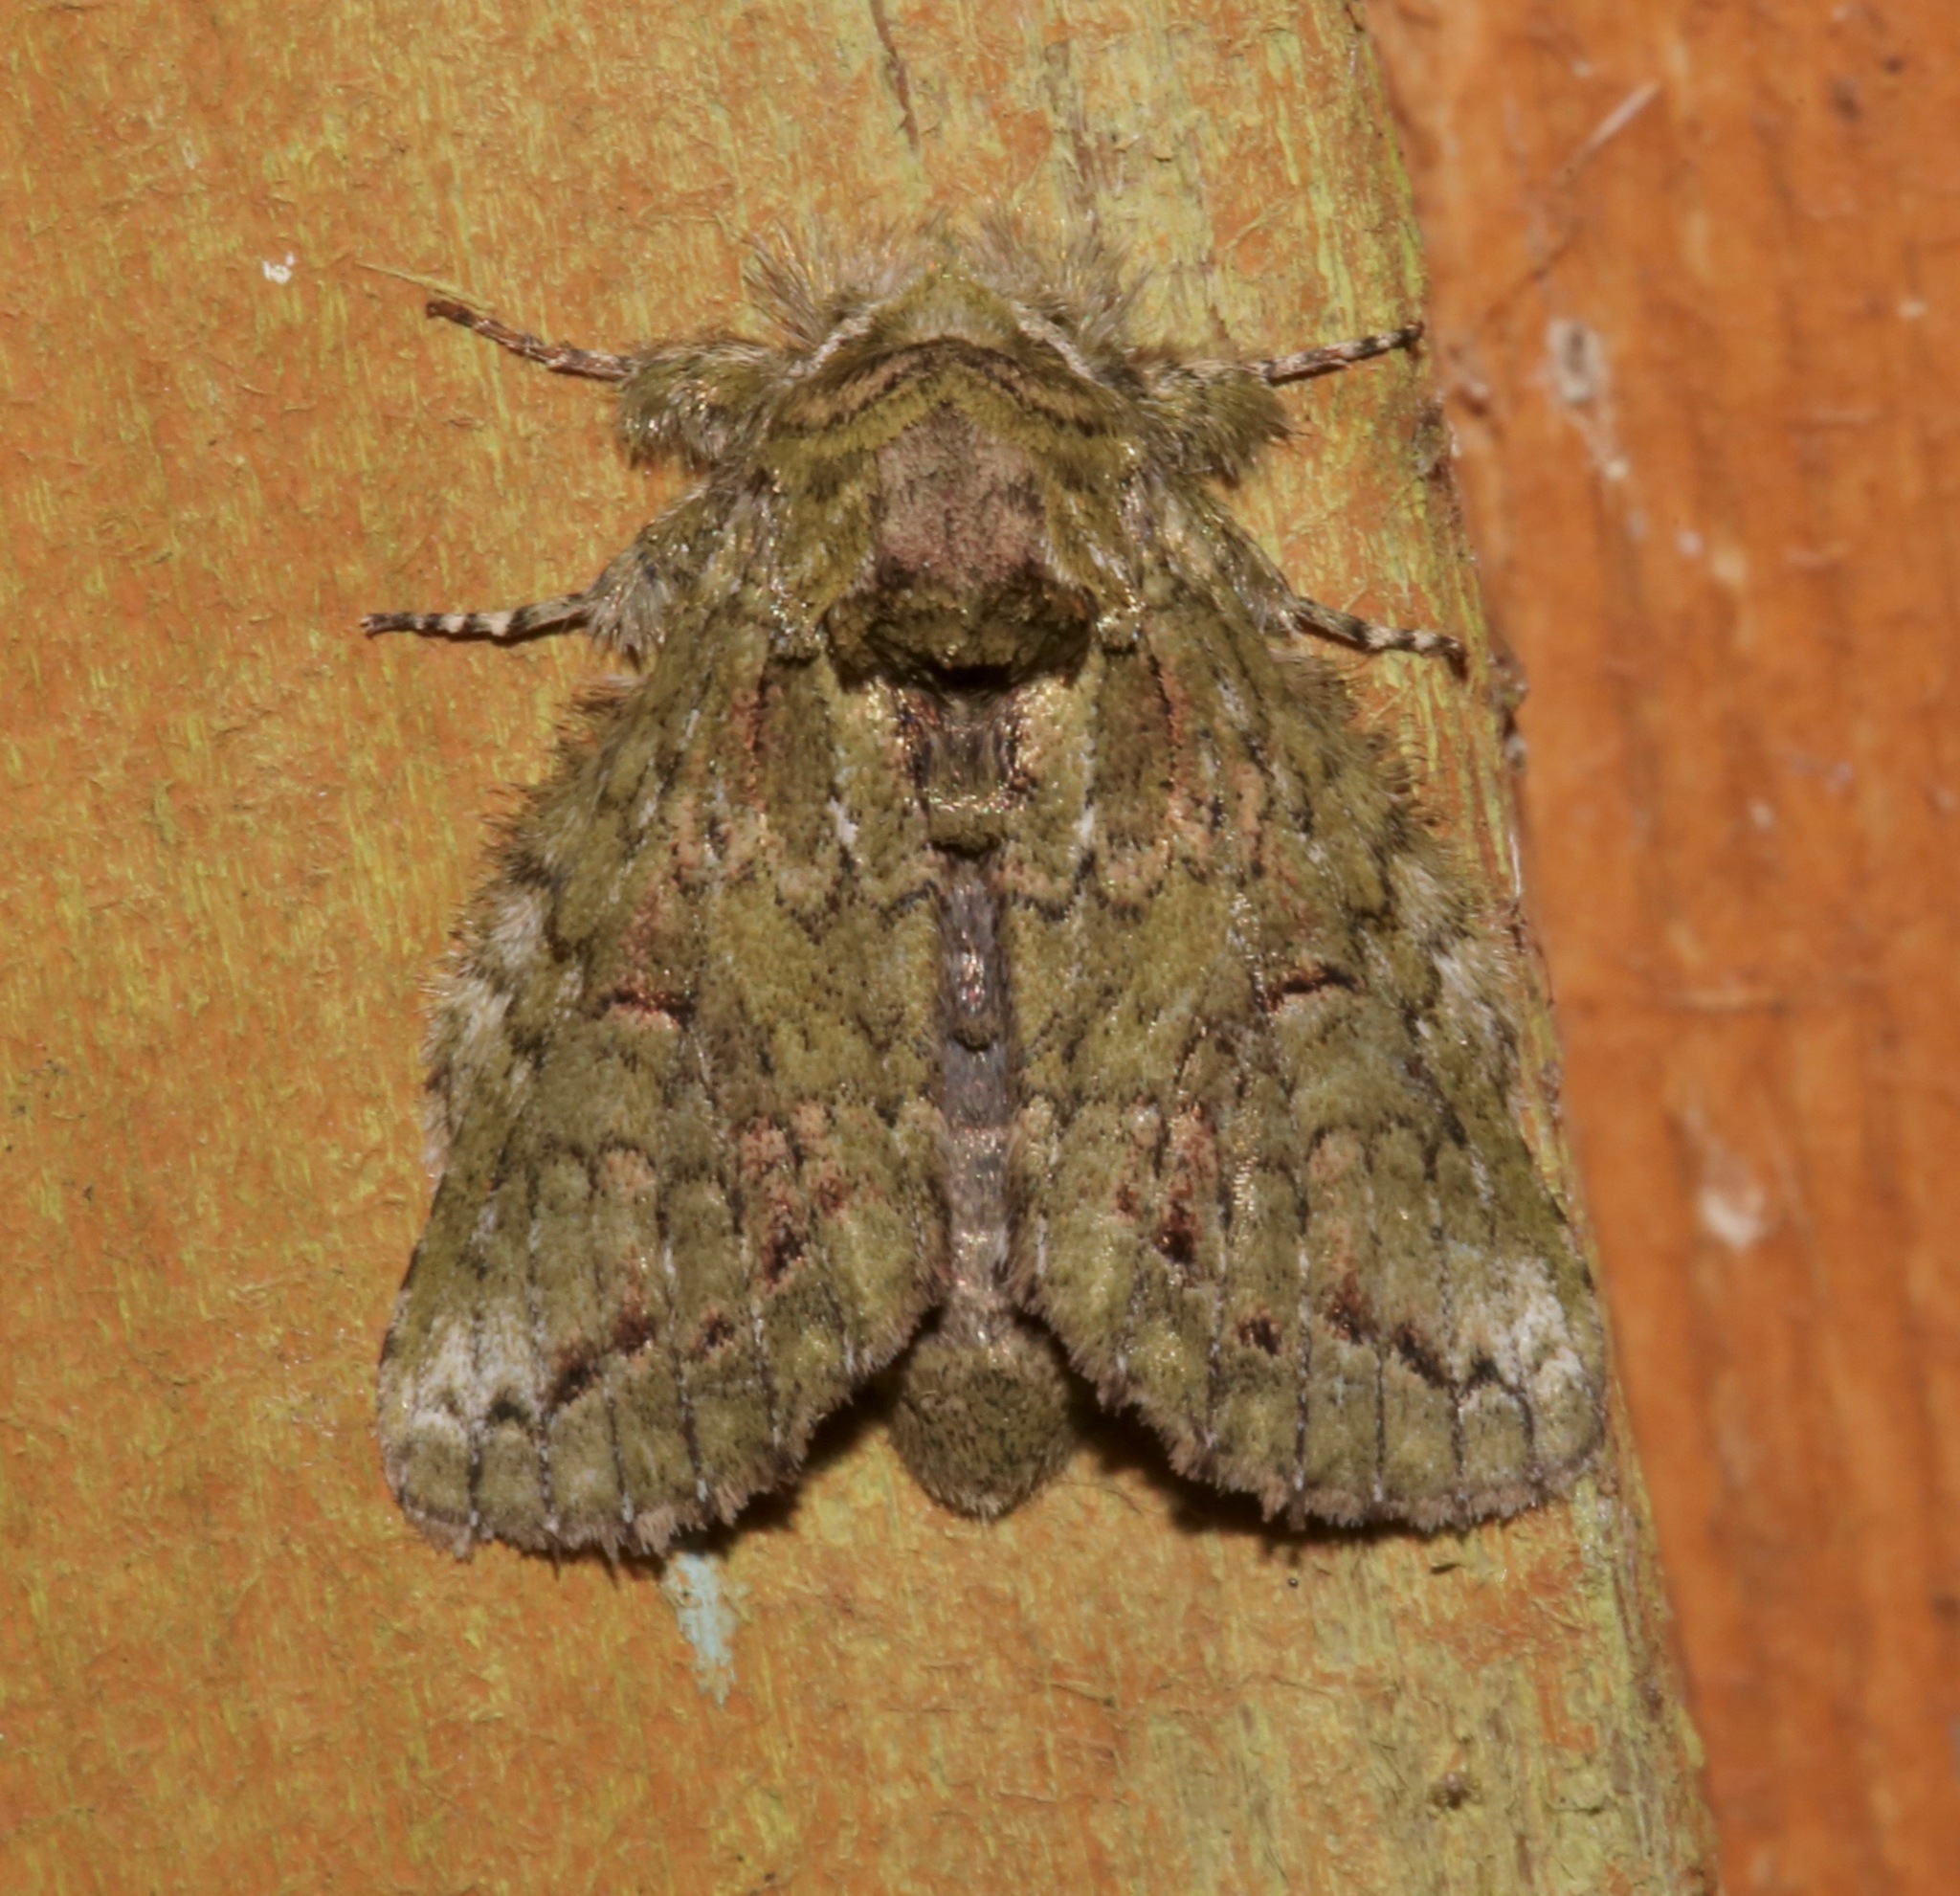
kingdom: Animalia
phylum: Arthropoda
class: Insecta
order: Lepidoptera
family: Notodontidae
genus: Heterocampa
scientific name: Heterocampa umbrata
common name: White-blotched heterocampa
